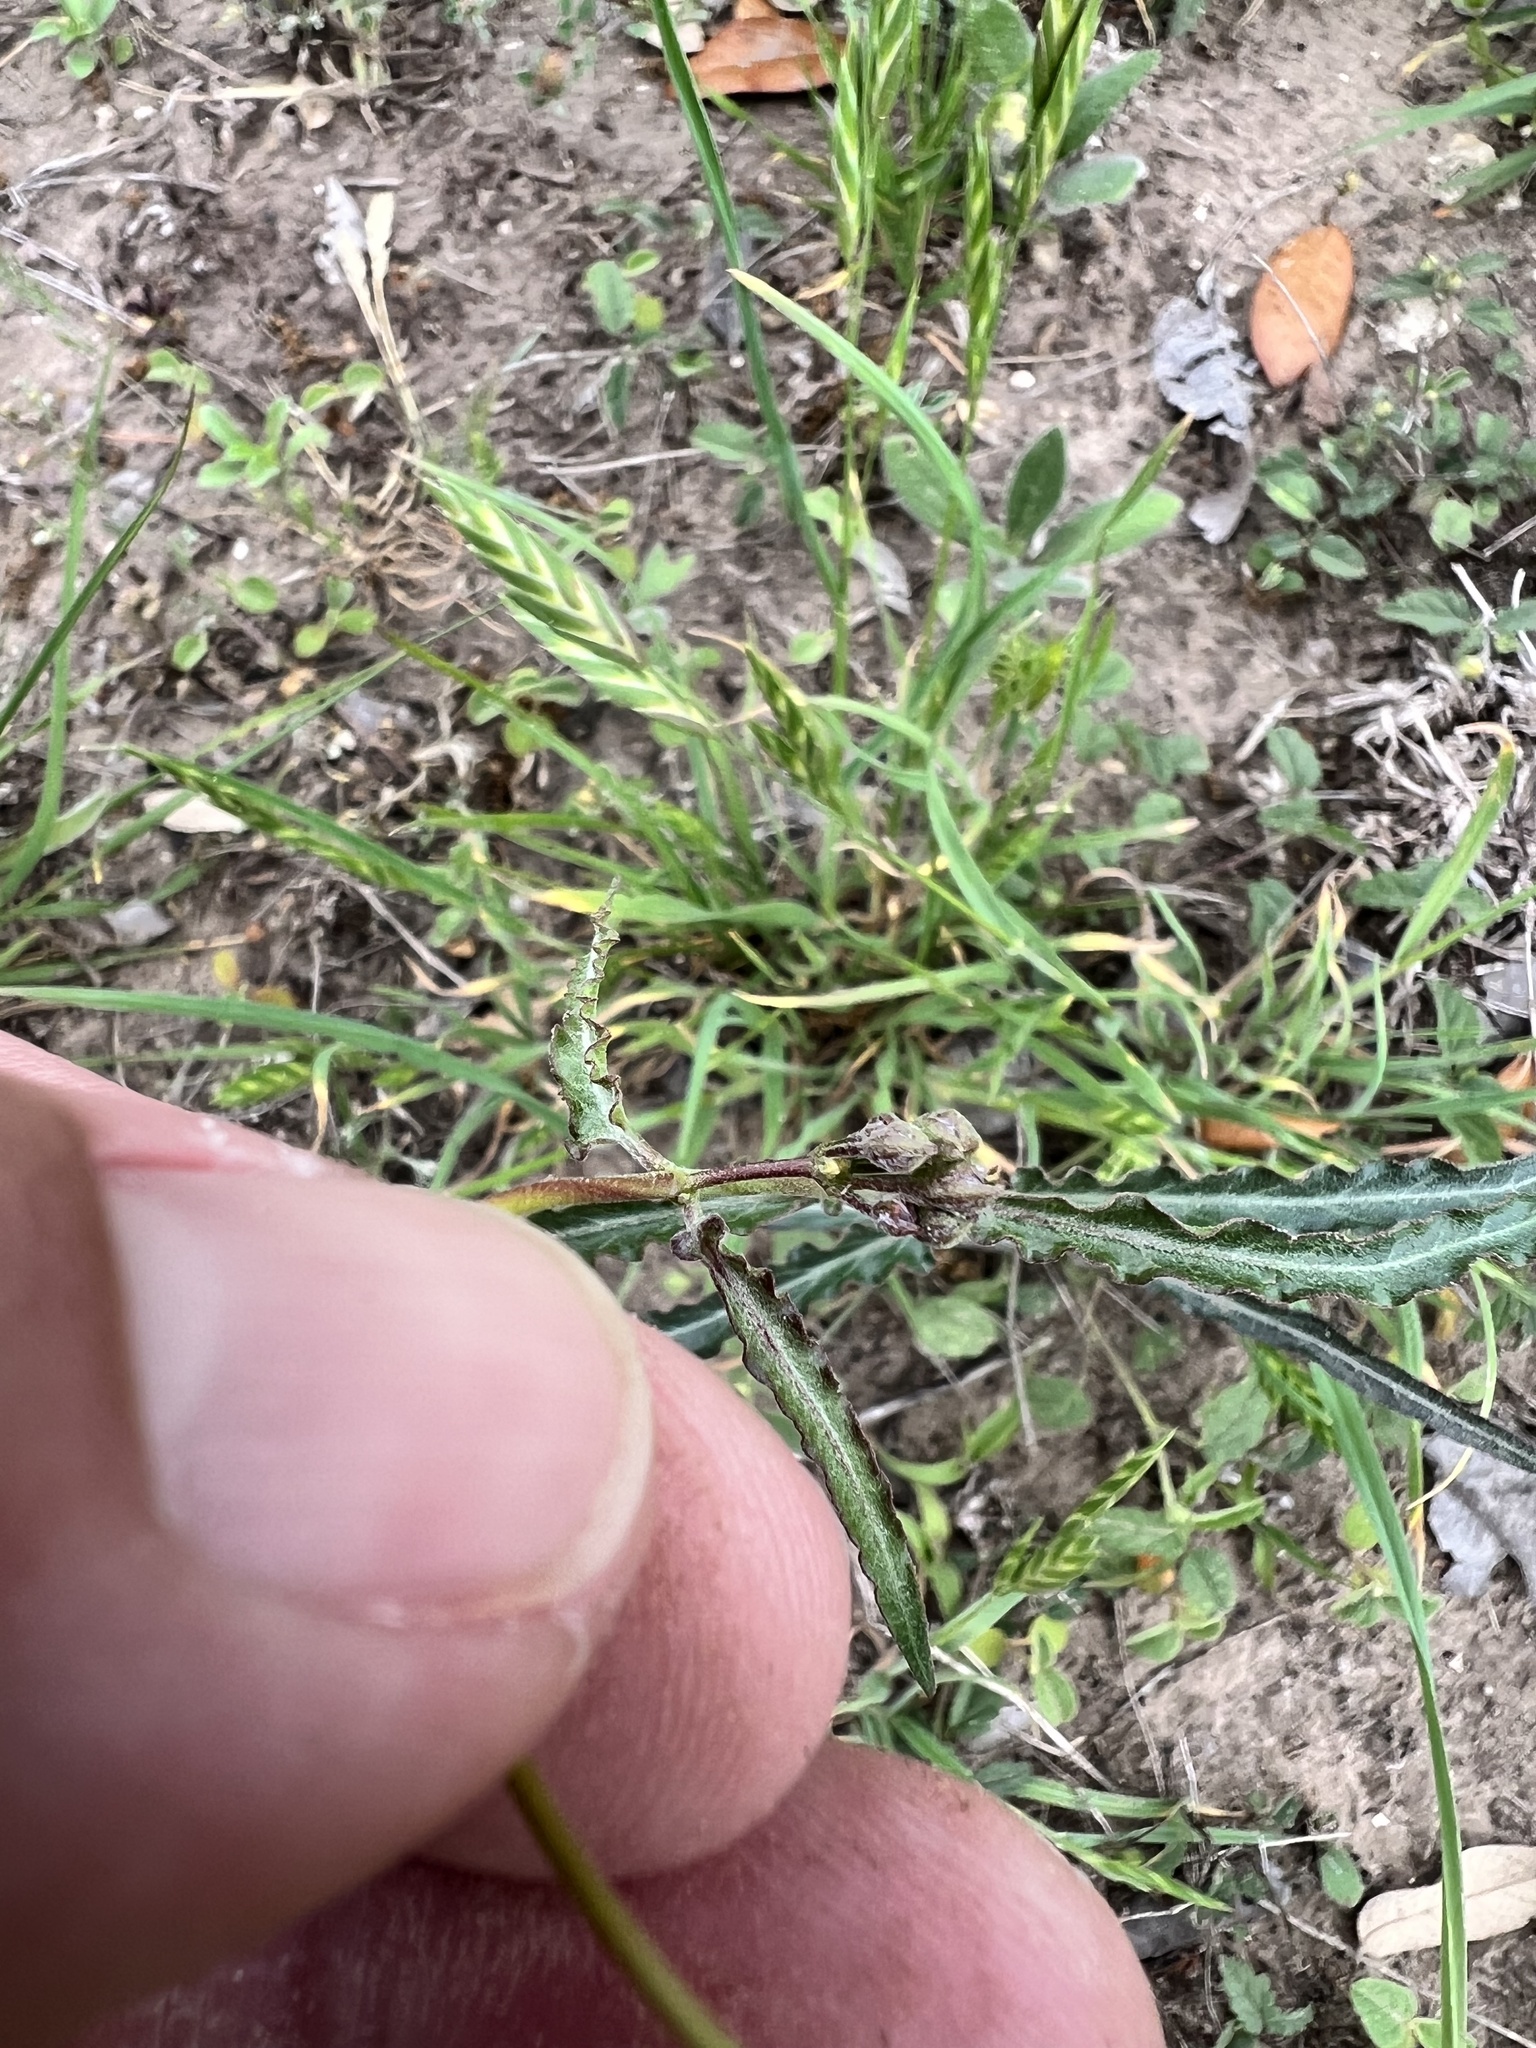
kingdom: Plantae
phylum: Tracheophyta
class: Magnoliopsida
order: Gentianales
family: Apocynaceae
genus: Funastrum
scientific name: Funastrum crispum
